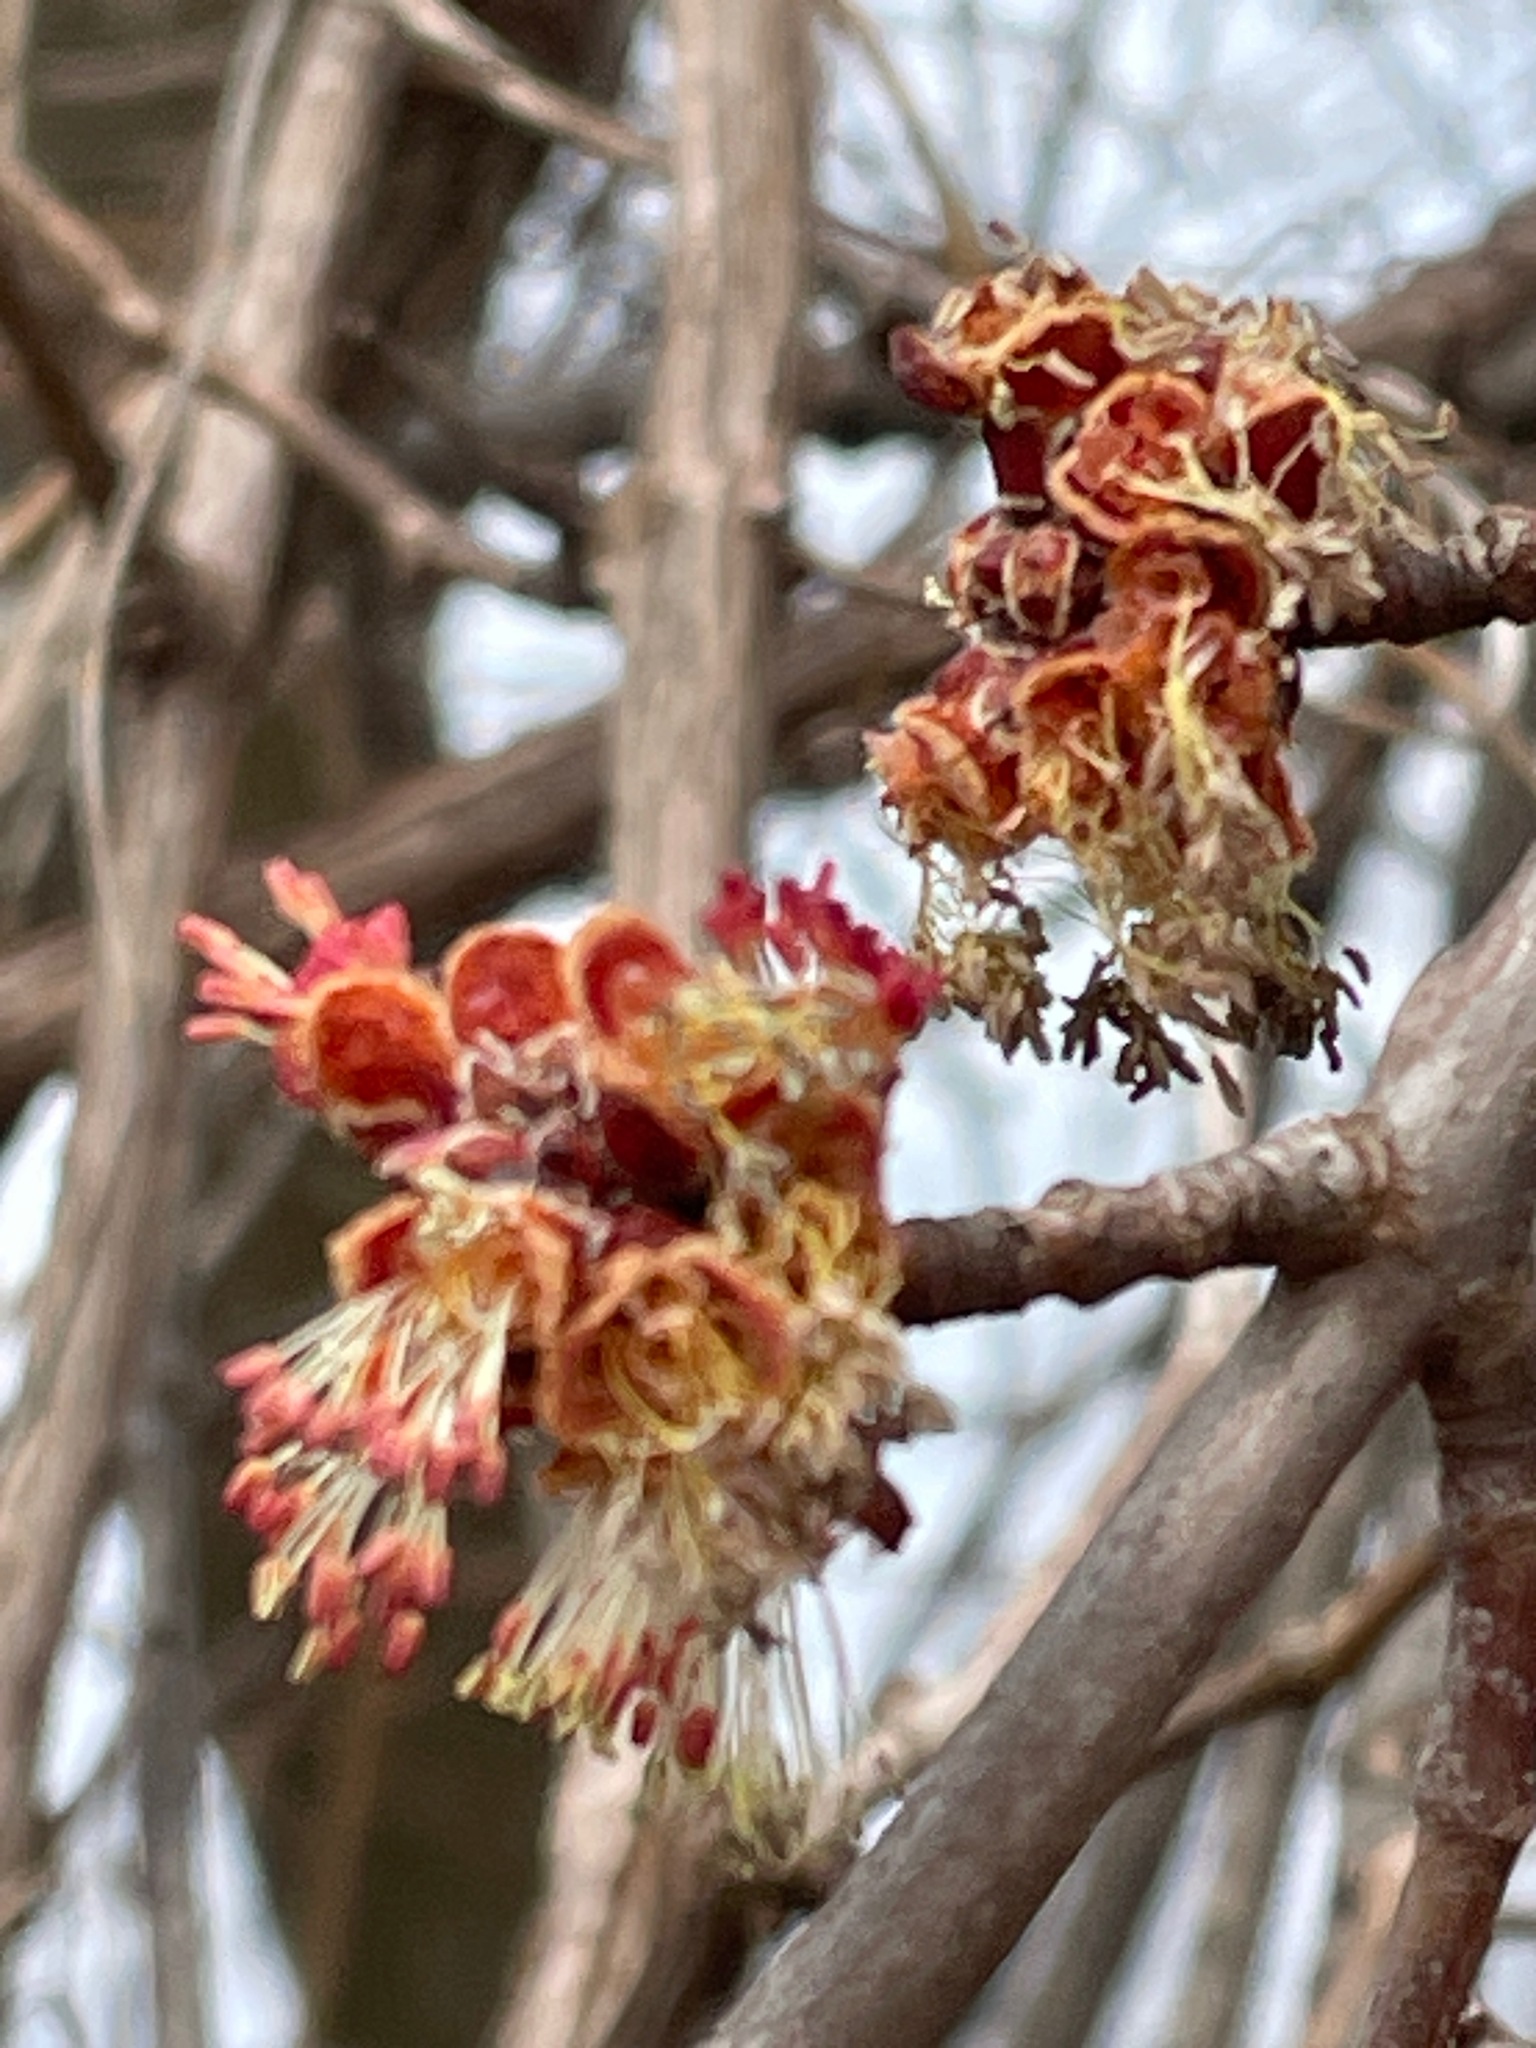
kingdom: Plantae
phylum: Tracheophyta
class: Magnoliopsida
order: Sapindales
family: Sapindaceae
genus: Acer
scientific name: Acer saccharinum
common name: Silver maple
